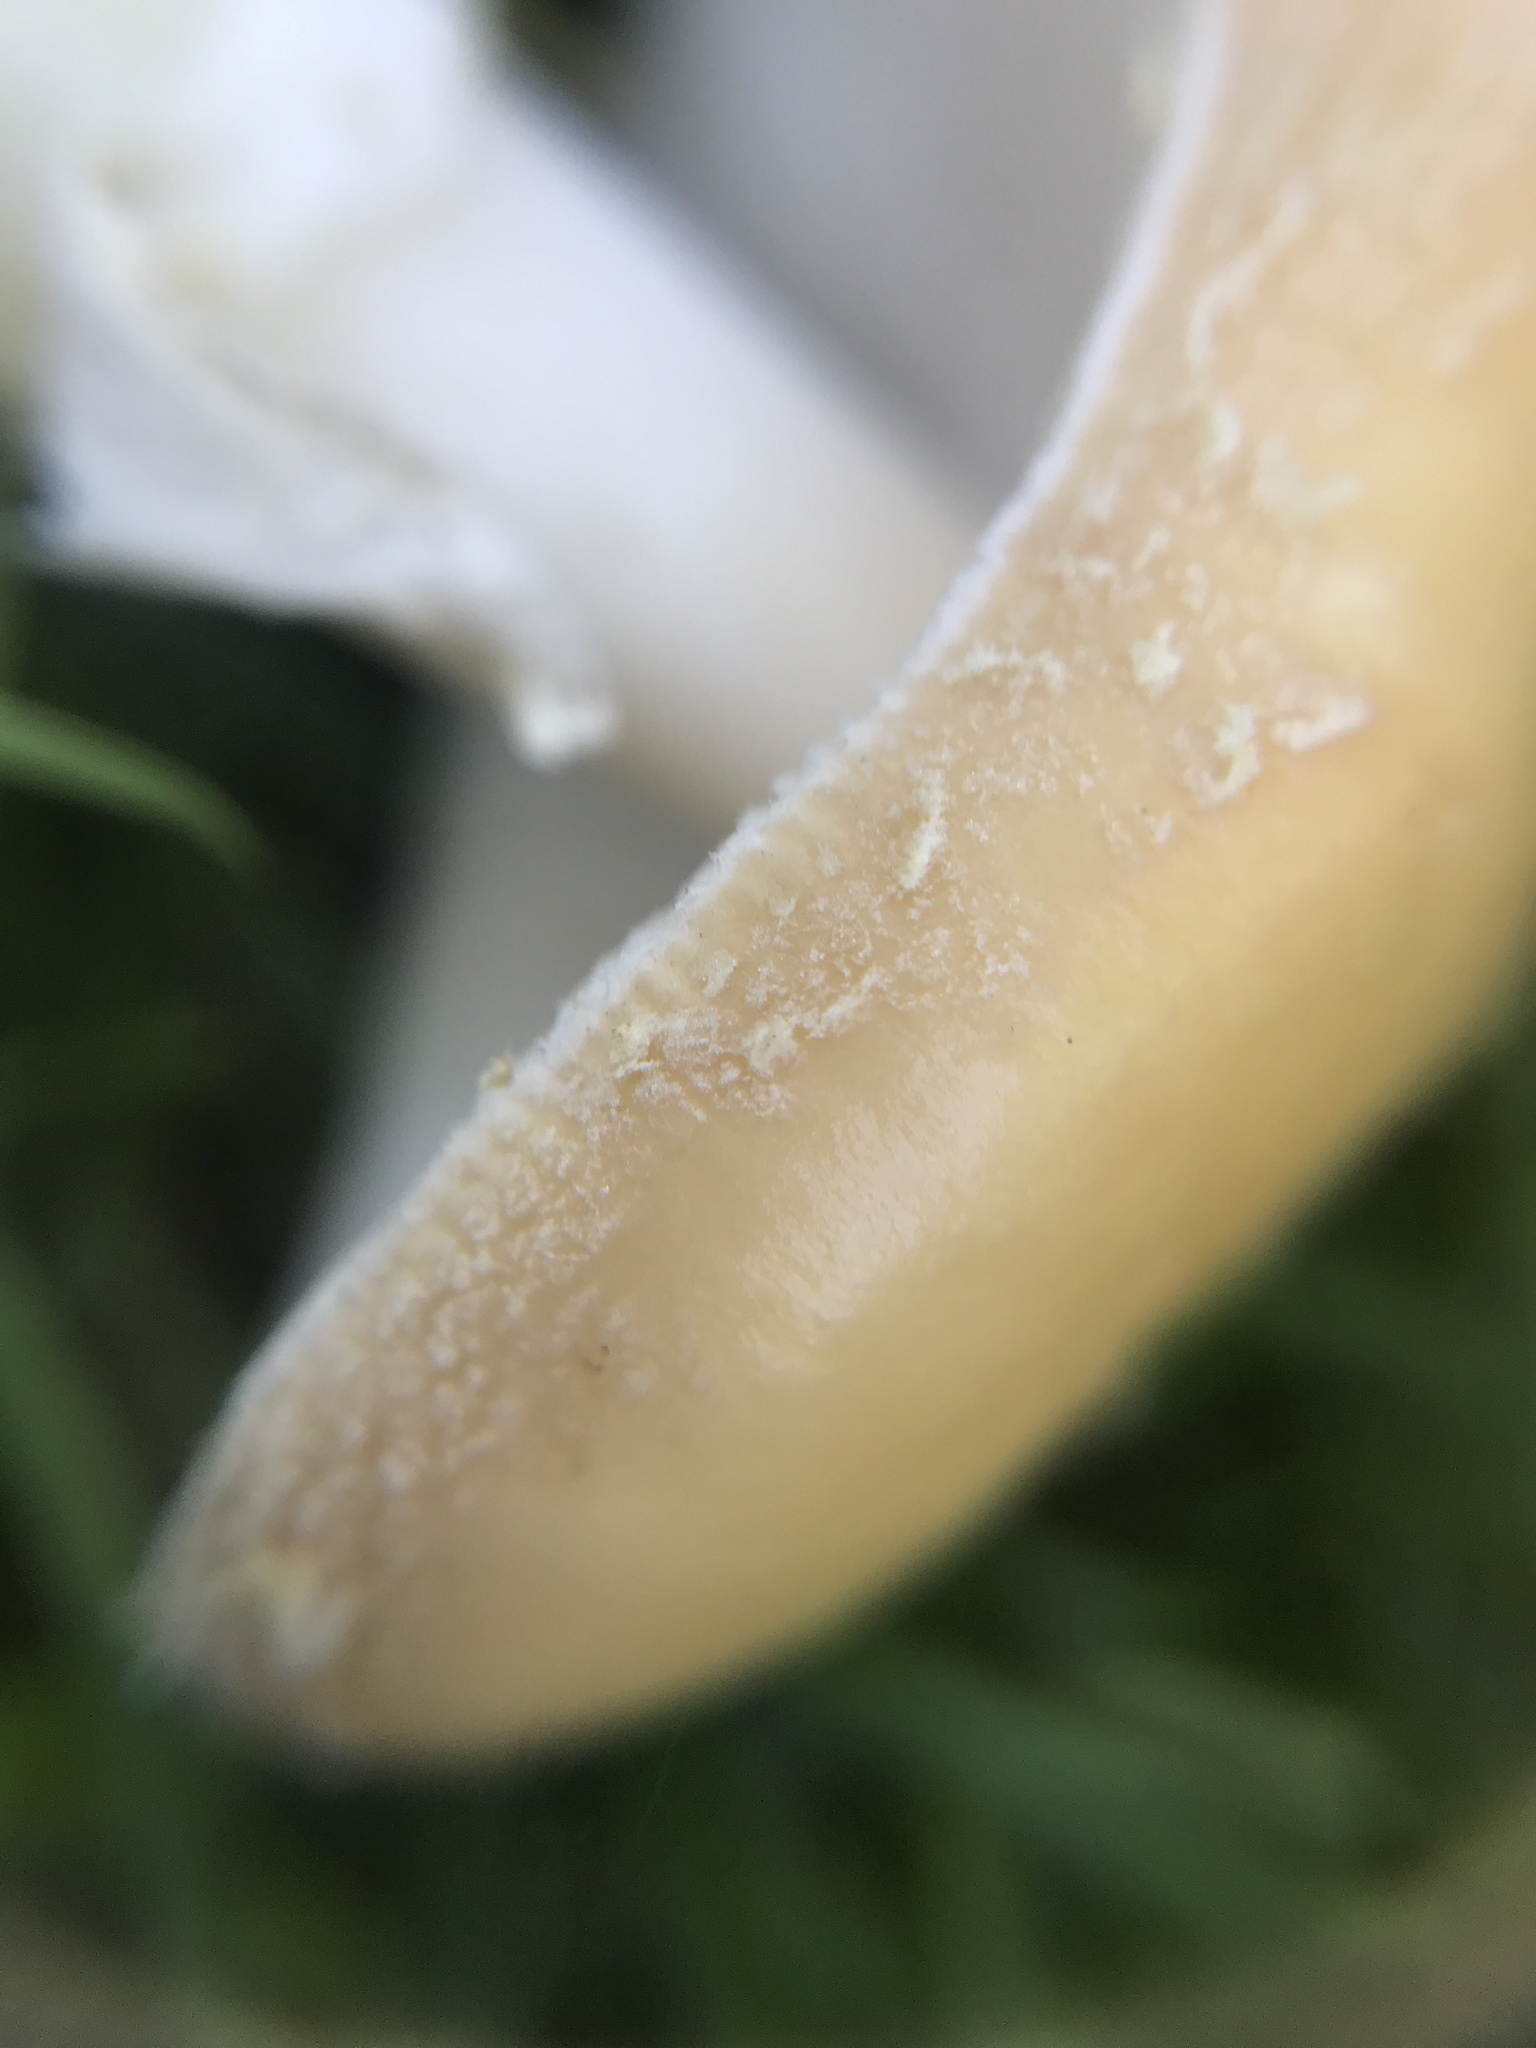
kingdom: Fungi
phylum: Basidiomycota
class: Agaricomycetes
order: Agaricales
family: Amanitaceae
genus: Amanita
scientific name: Amanita crenulata
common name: Poison champagne amanita
